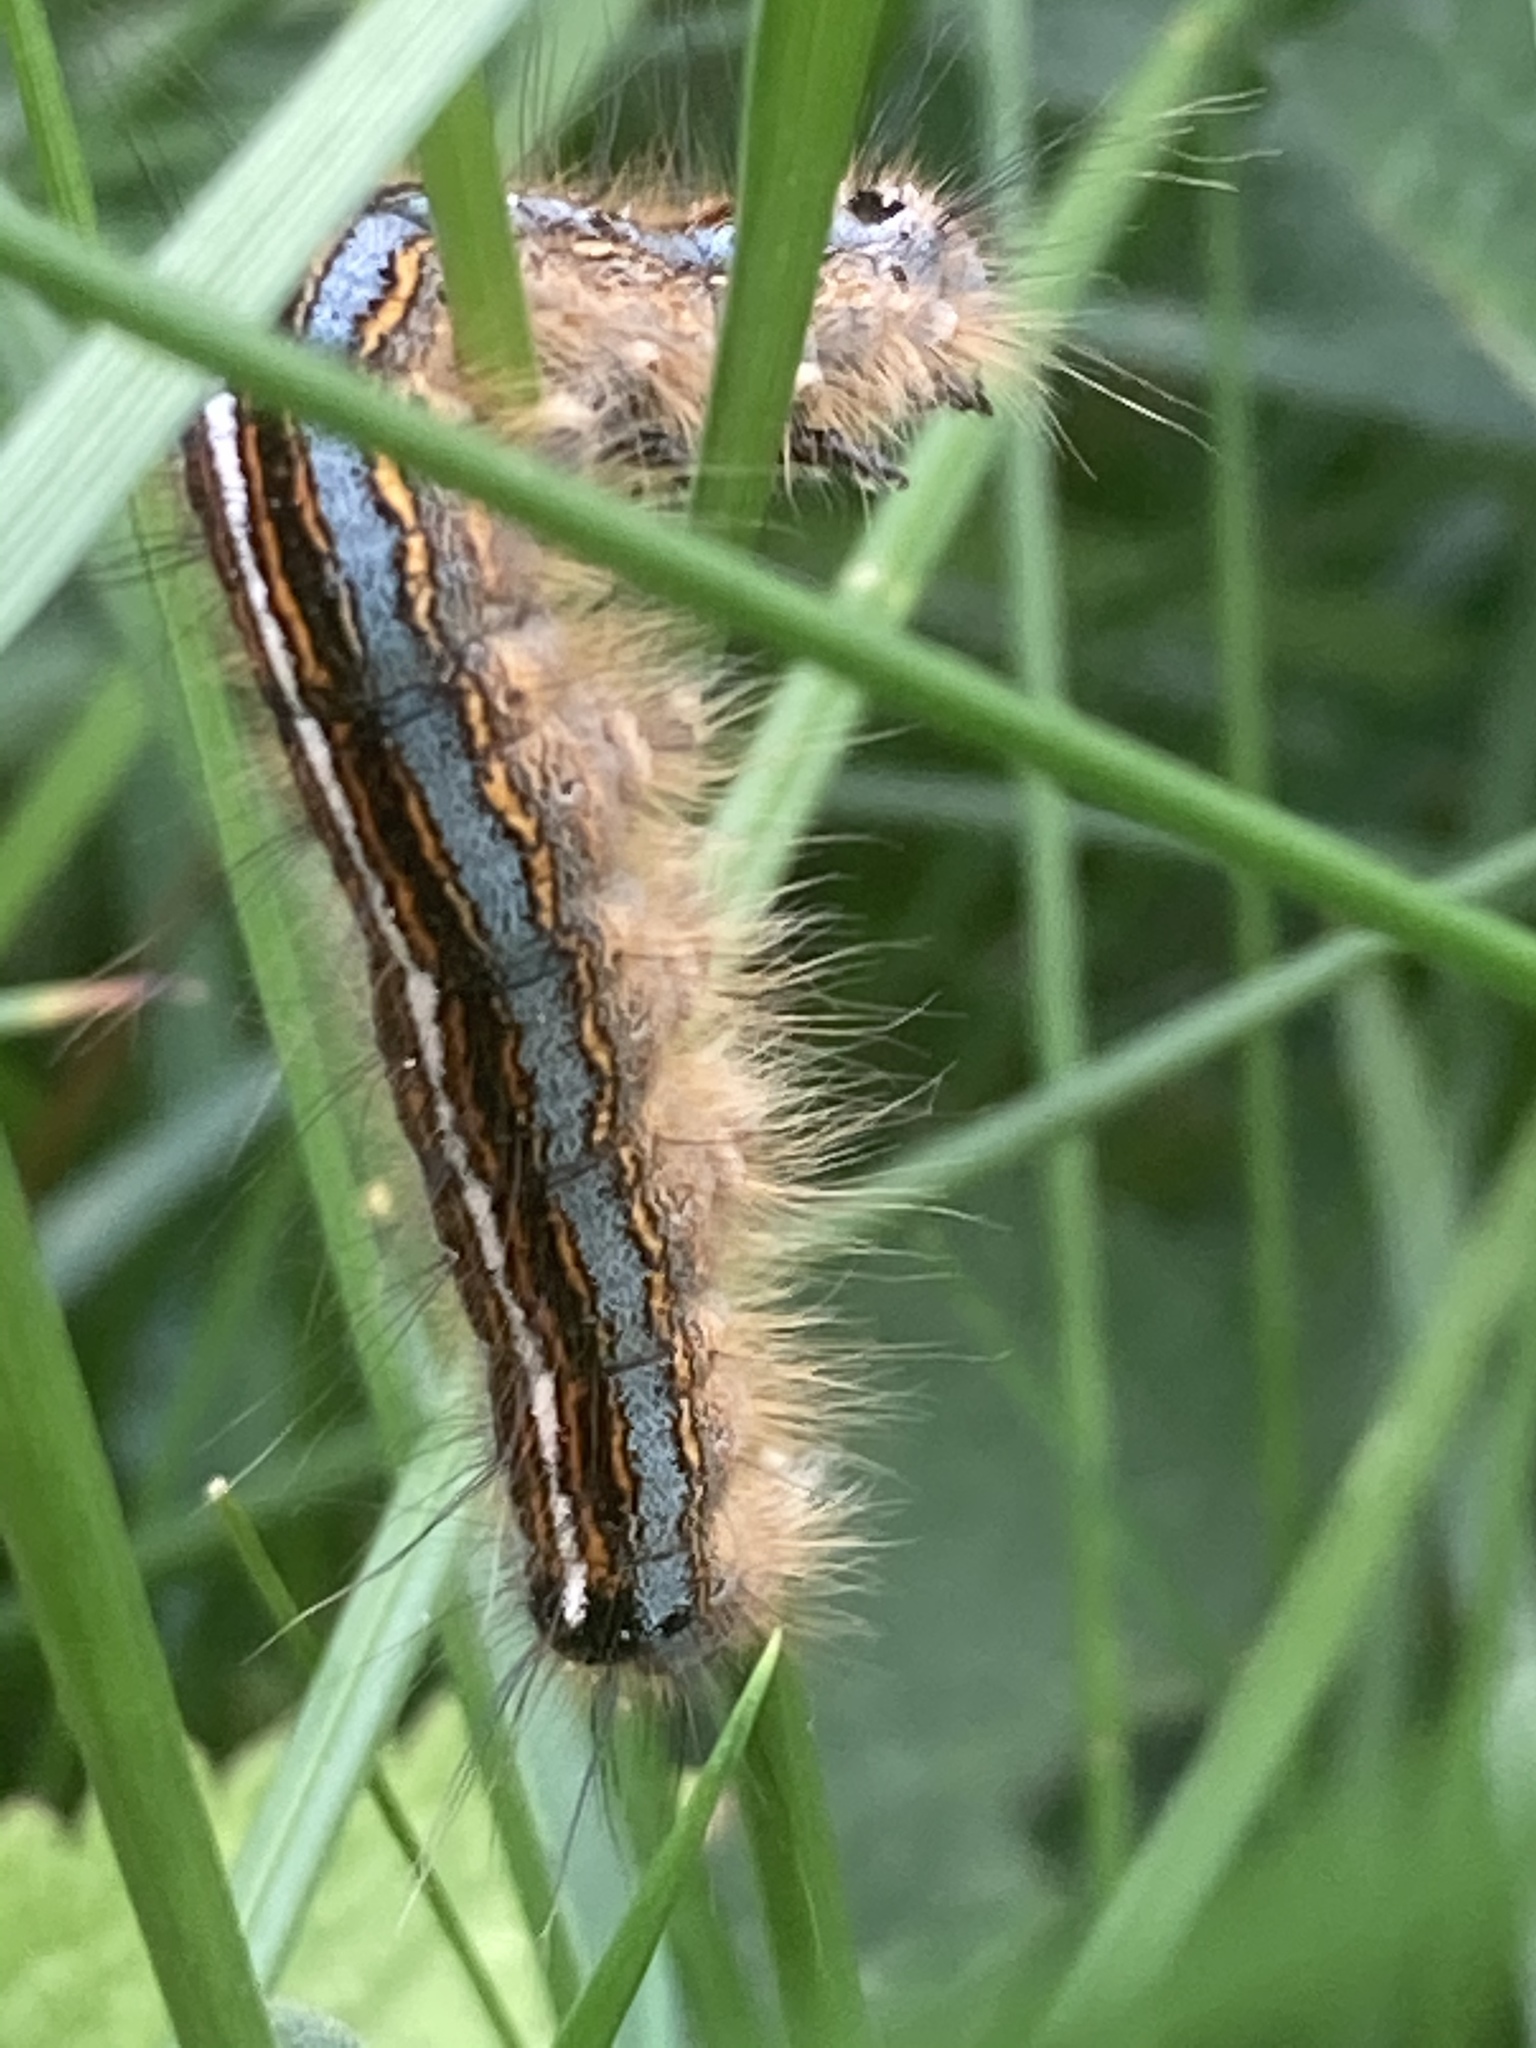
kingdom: Animalia
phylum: Arthropoda
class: Insecta
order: Lepidoptera
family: Lasiocampidae
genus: Malacosoma
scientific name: Malacosoma neustria
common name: The lackey
